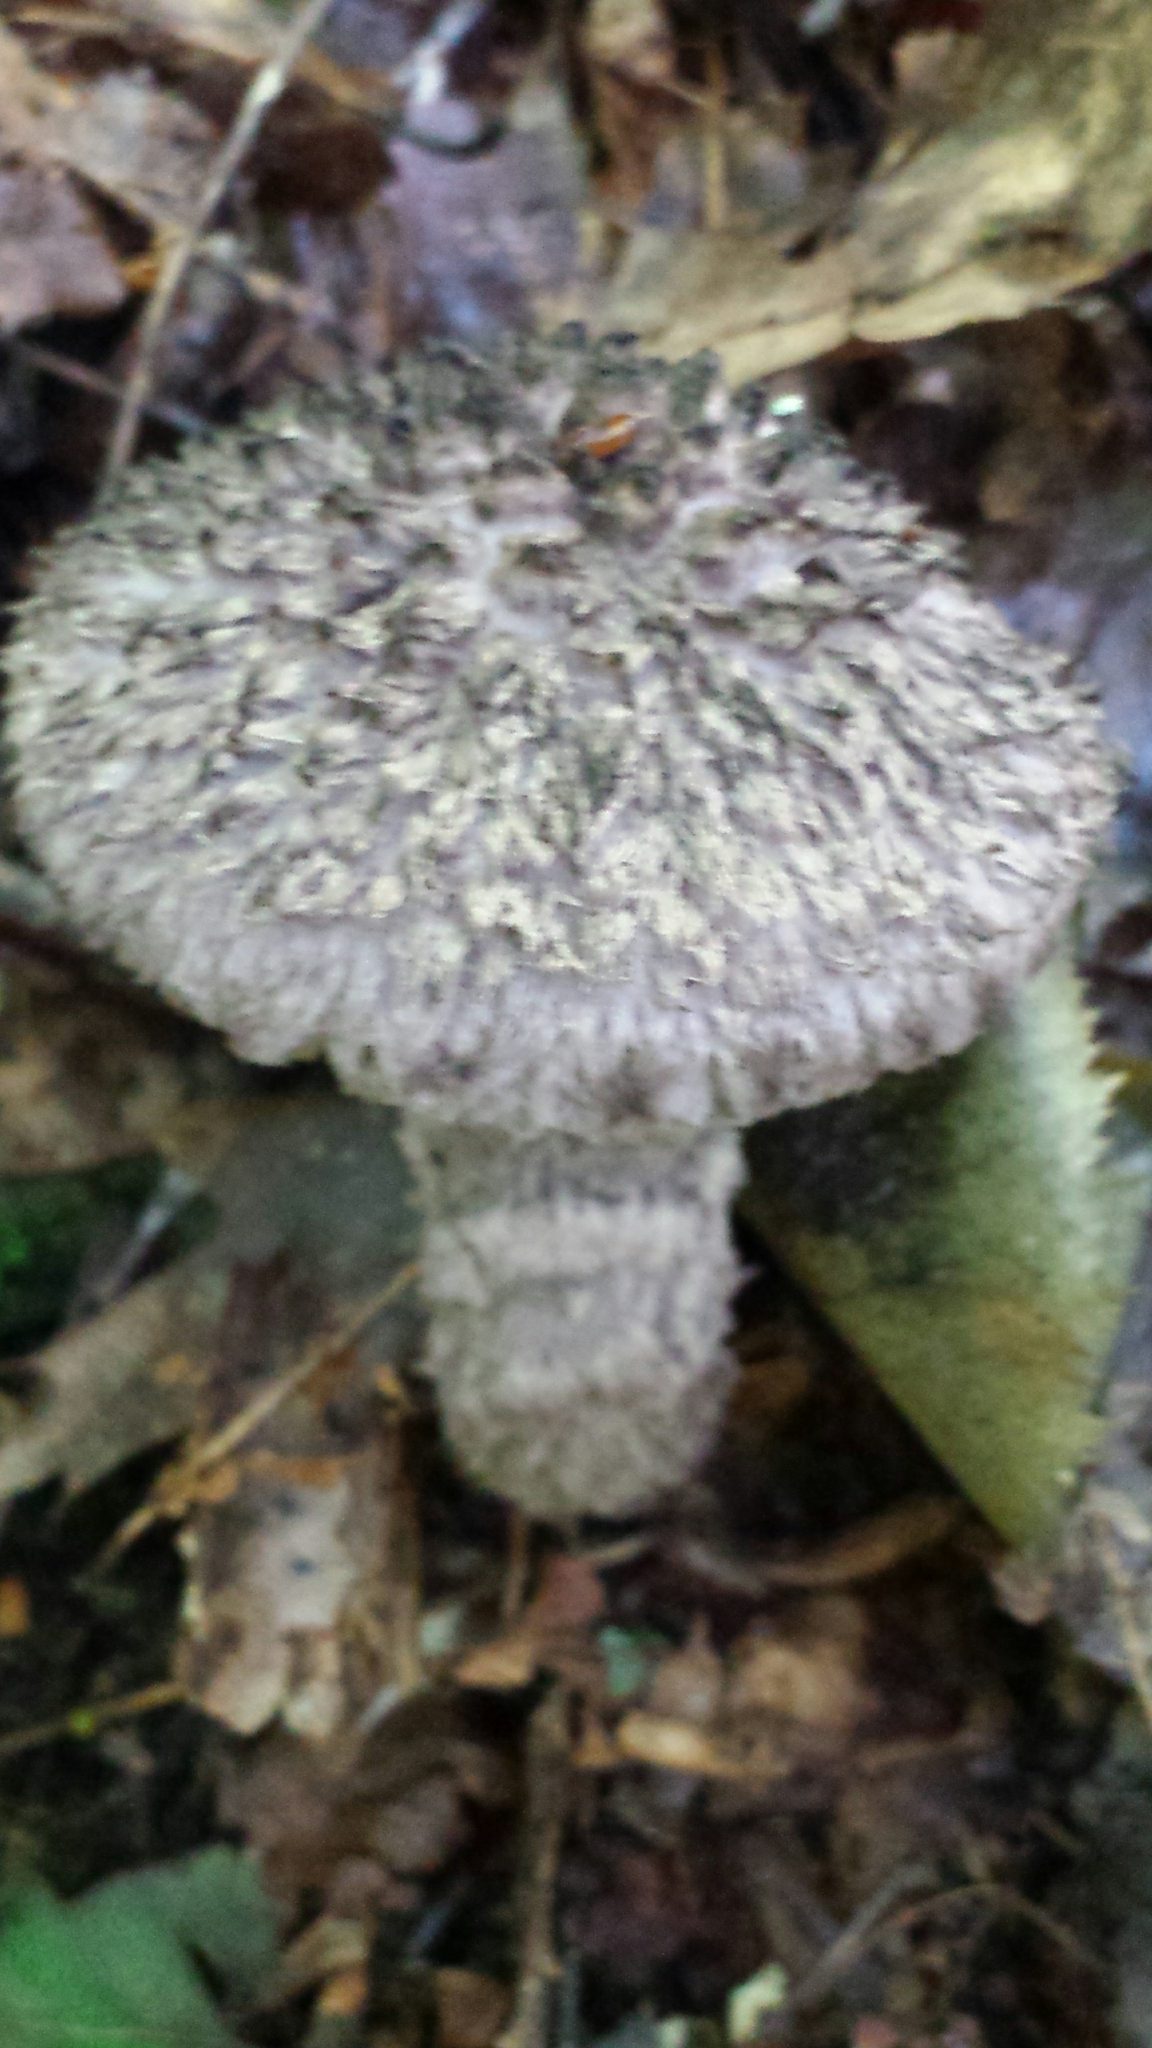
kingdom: Fungi
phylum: Basidiomycota
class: Agaricomycetes
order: Boletales
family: Boletaceae
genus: Strobilomyces
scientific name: Strobilomyces strobilaceus
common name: Old man of the woods
